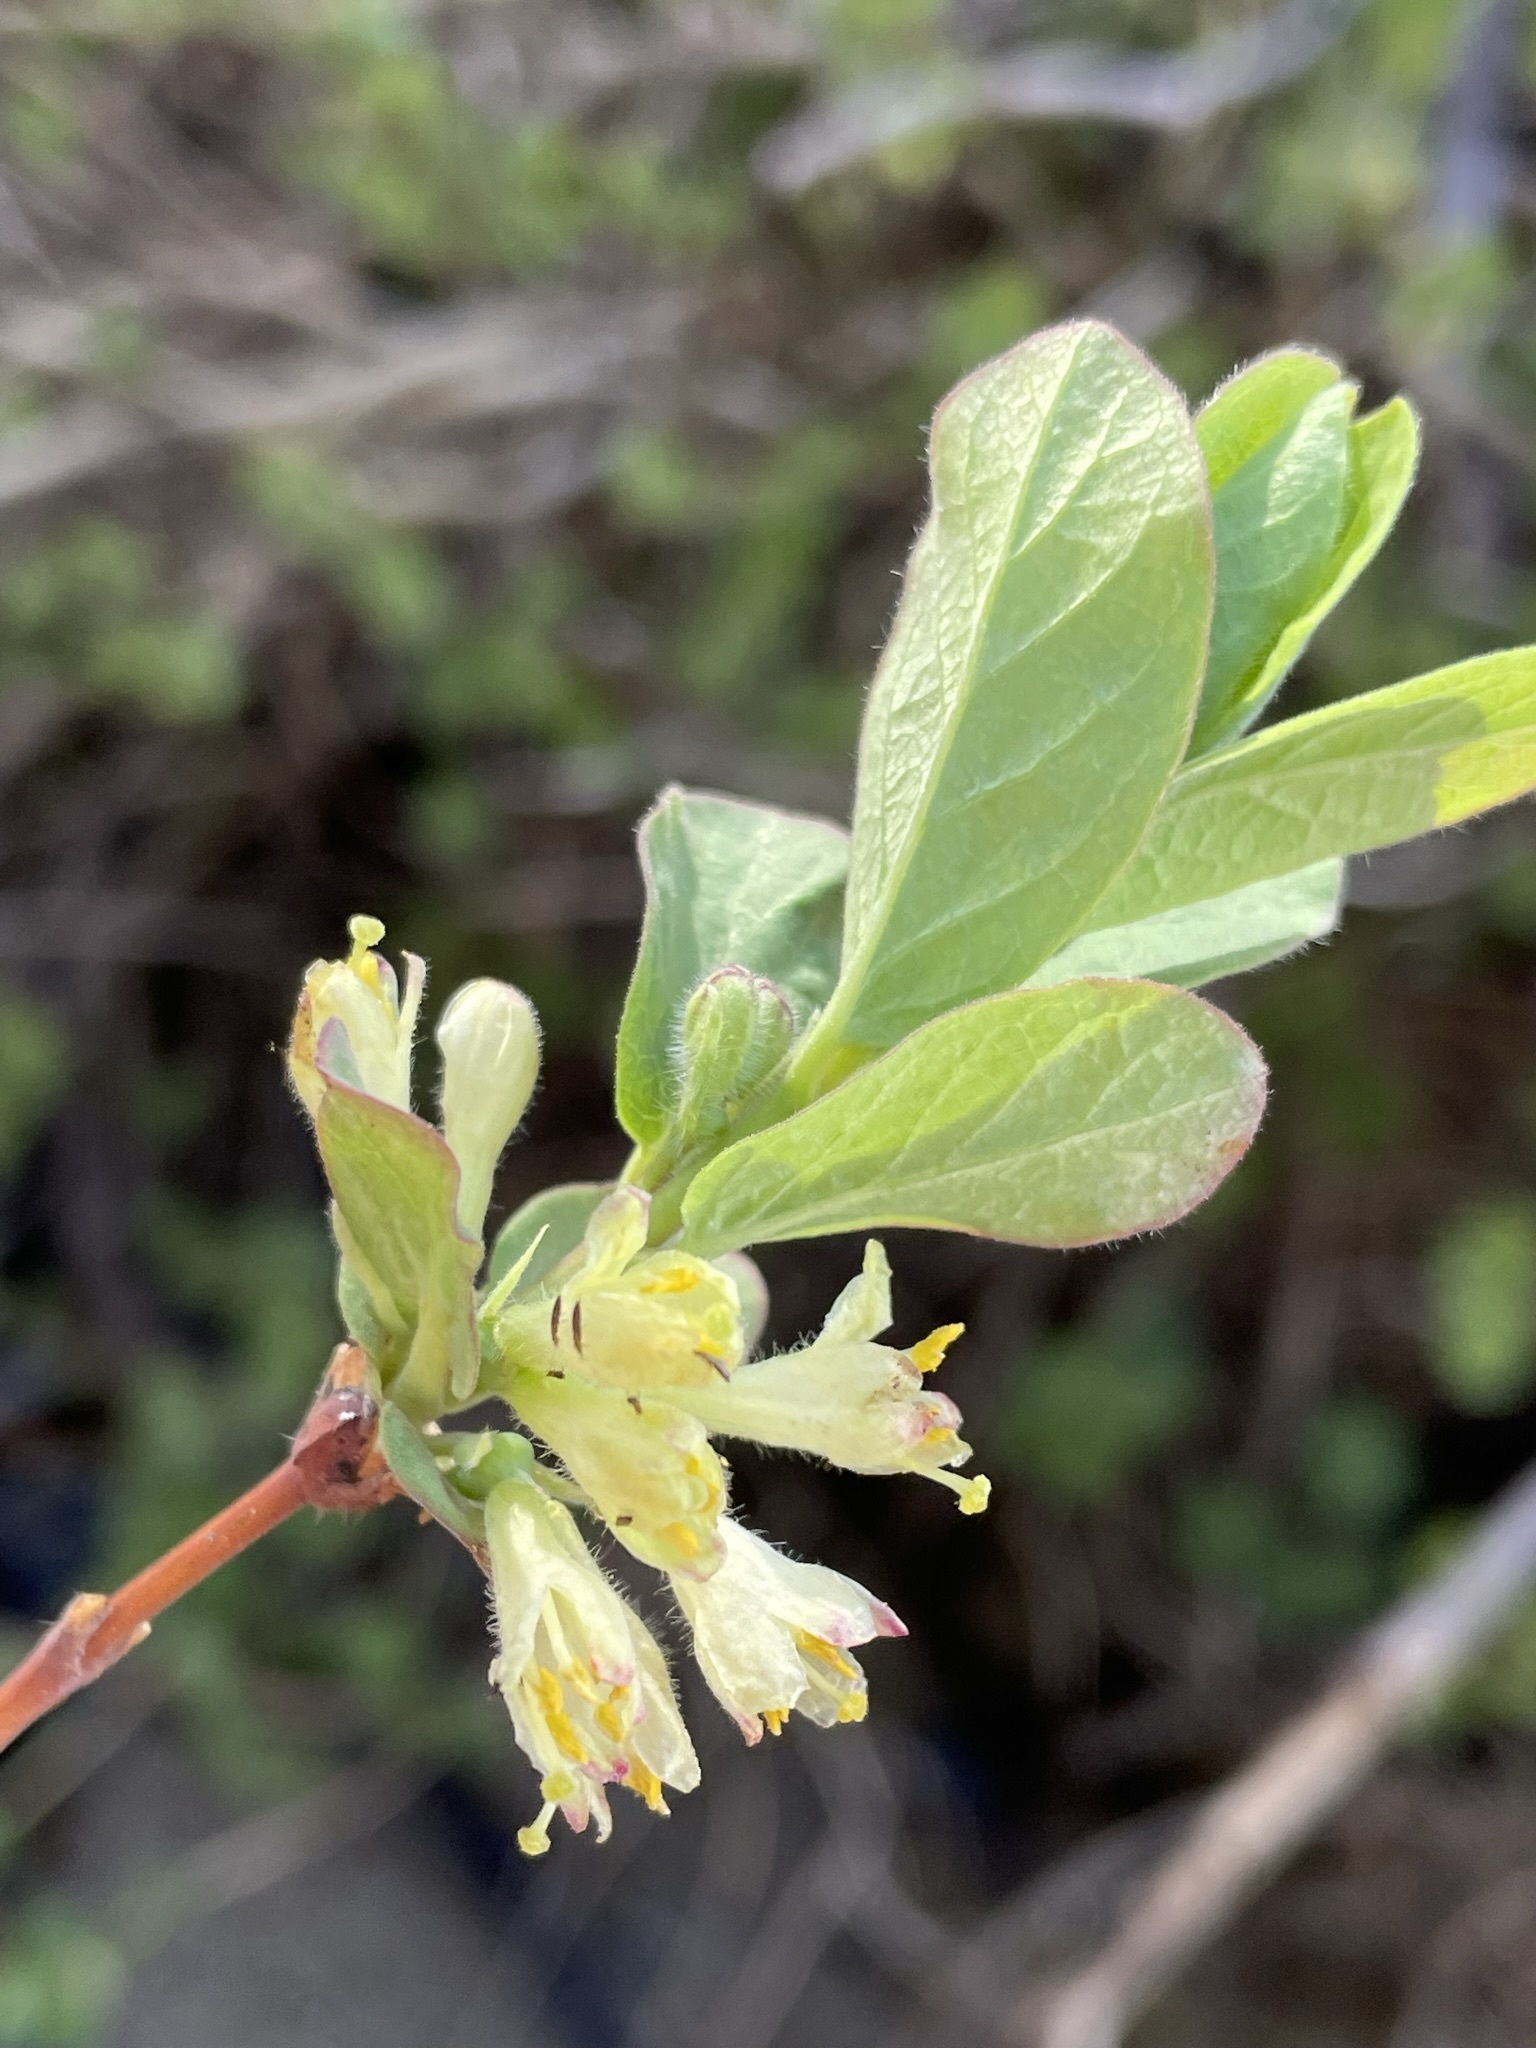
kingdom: Plantae
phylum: Tracheophyta
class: Magnoliopsida
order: Dipsacales
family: Caprifoliaceae
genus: Lonicera
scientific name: Lonicera caerulea
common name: Blue honeysuckle
